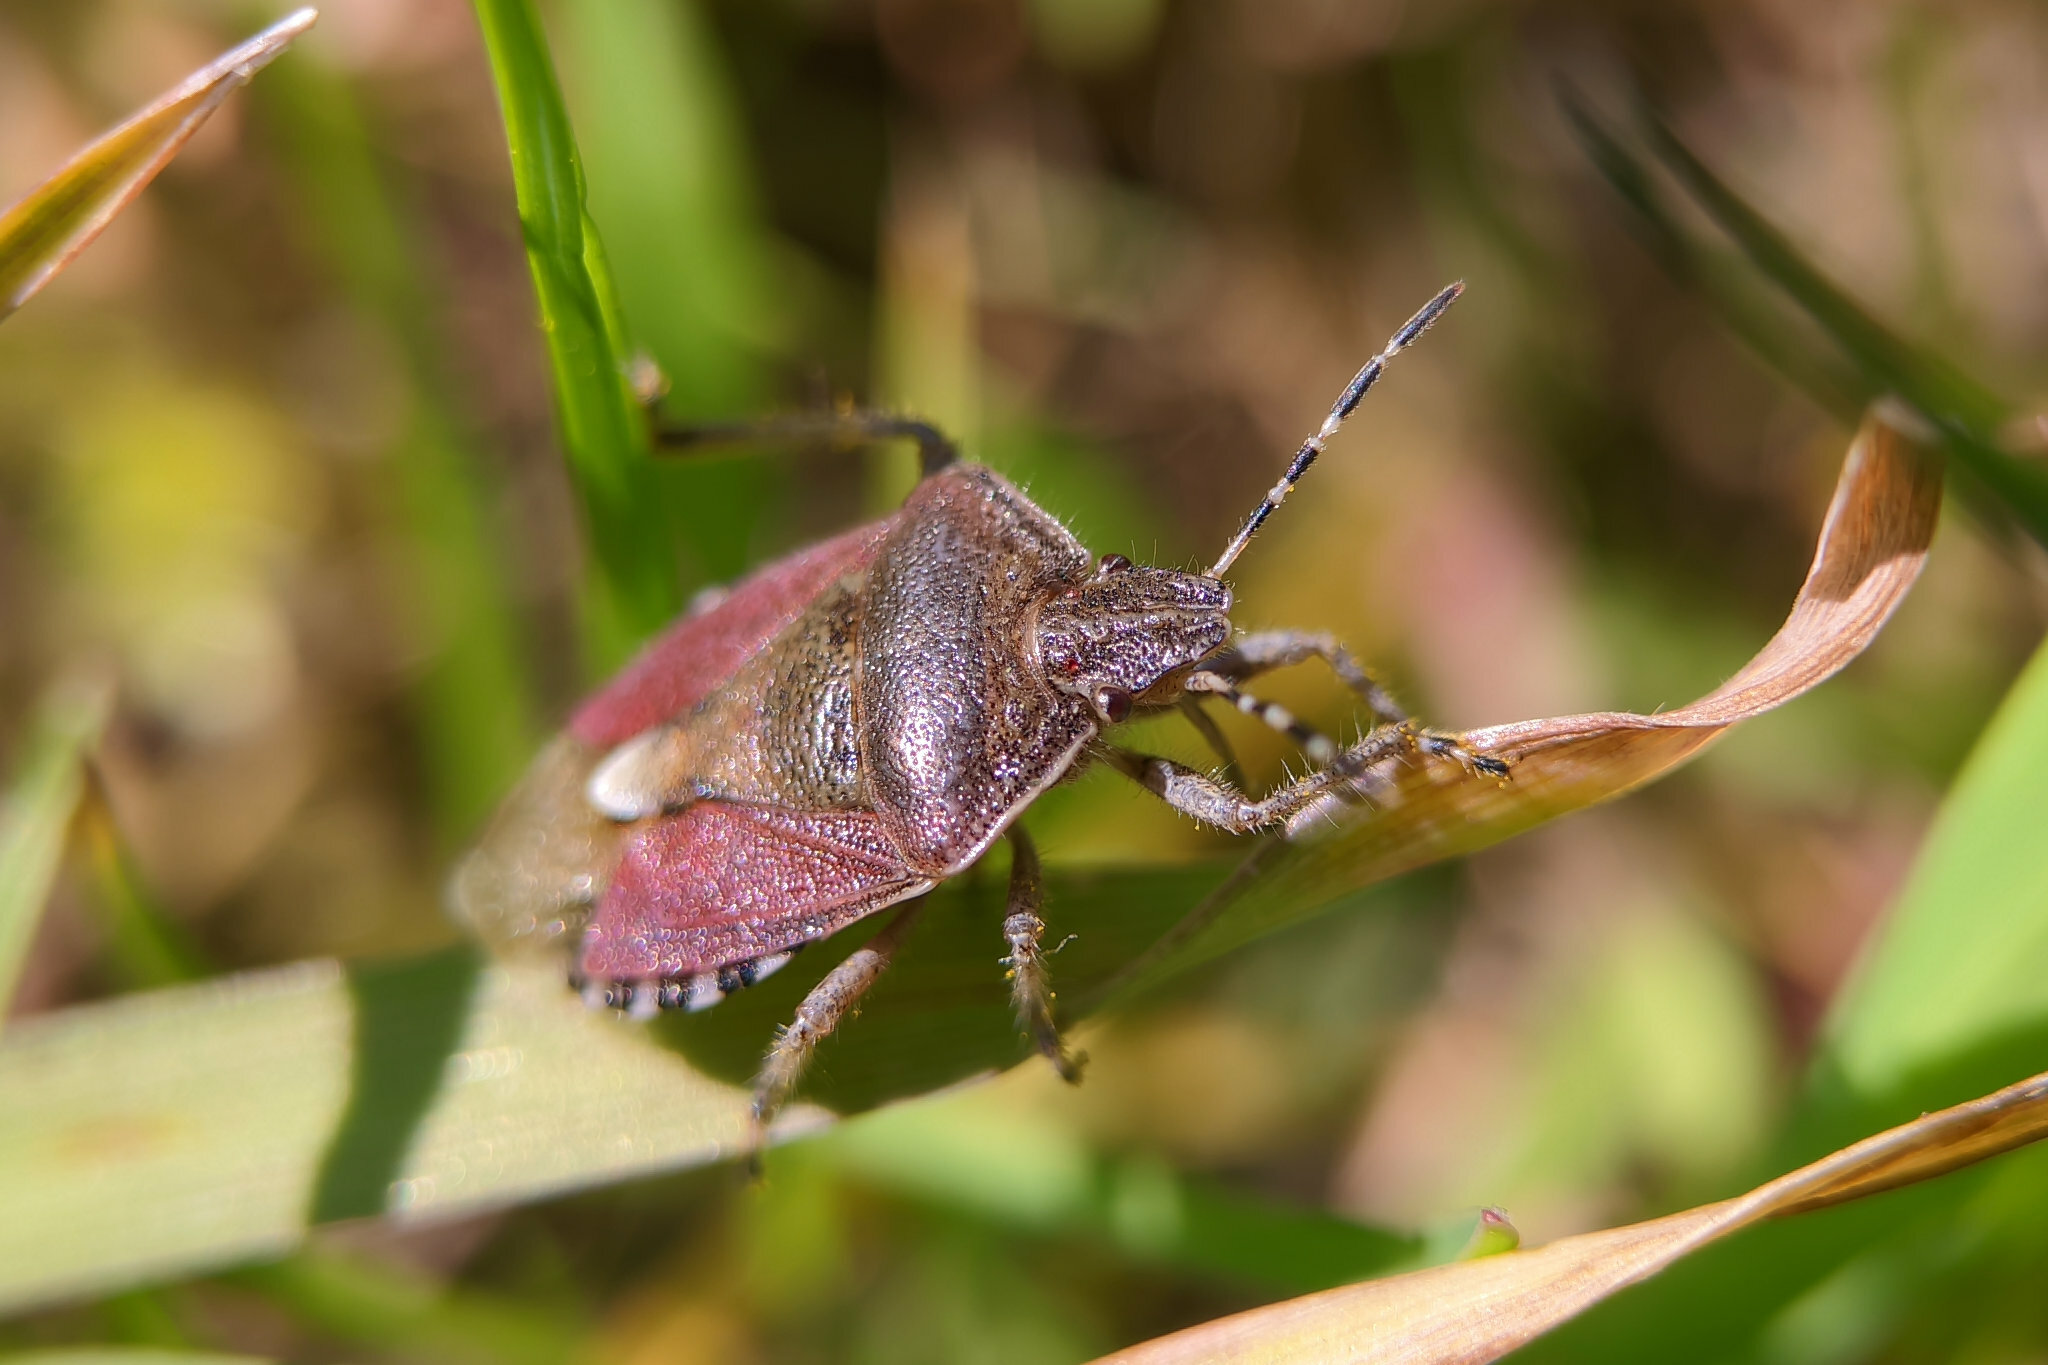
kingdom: Animalia
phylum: Arthropoda
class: Insecta
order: Hemiptera
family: Pentatomidae
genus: Dolycoris
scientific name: Dolycoris baccarum
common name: Sloe bug
